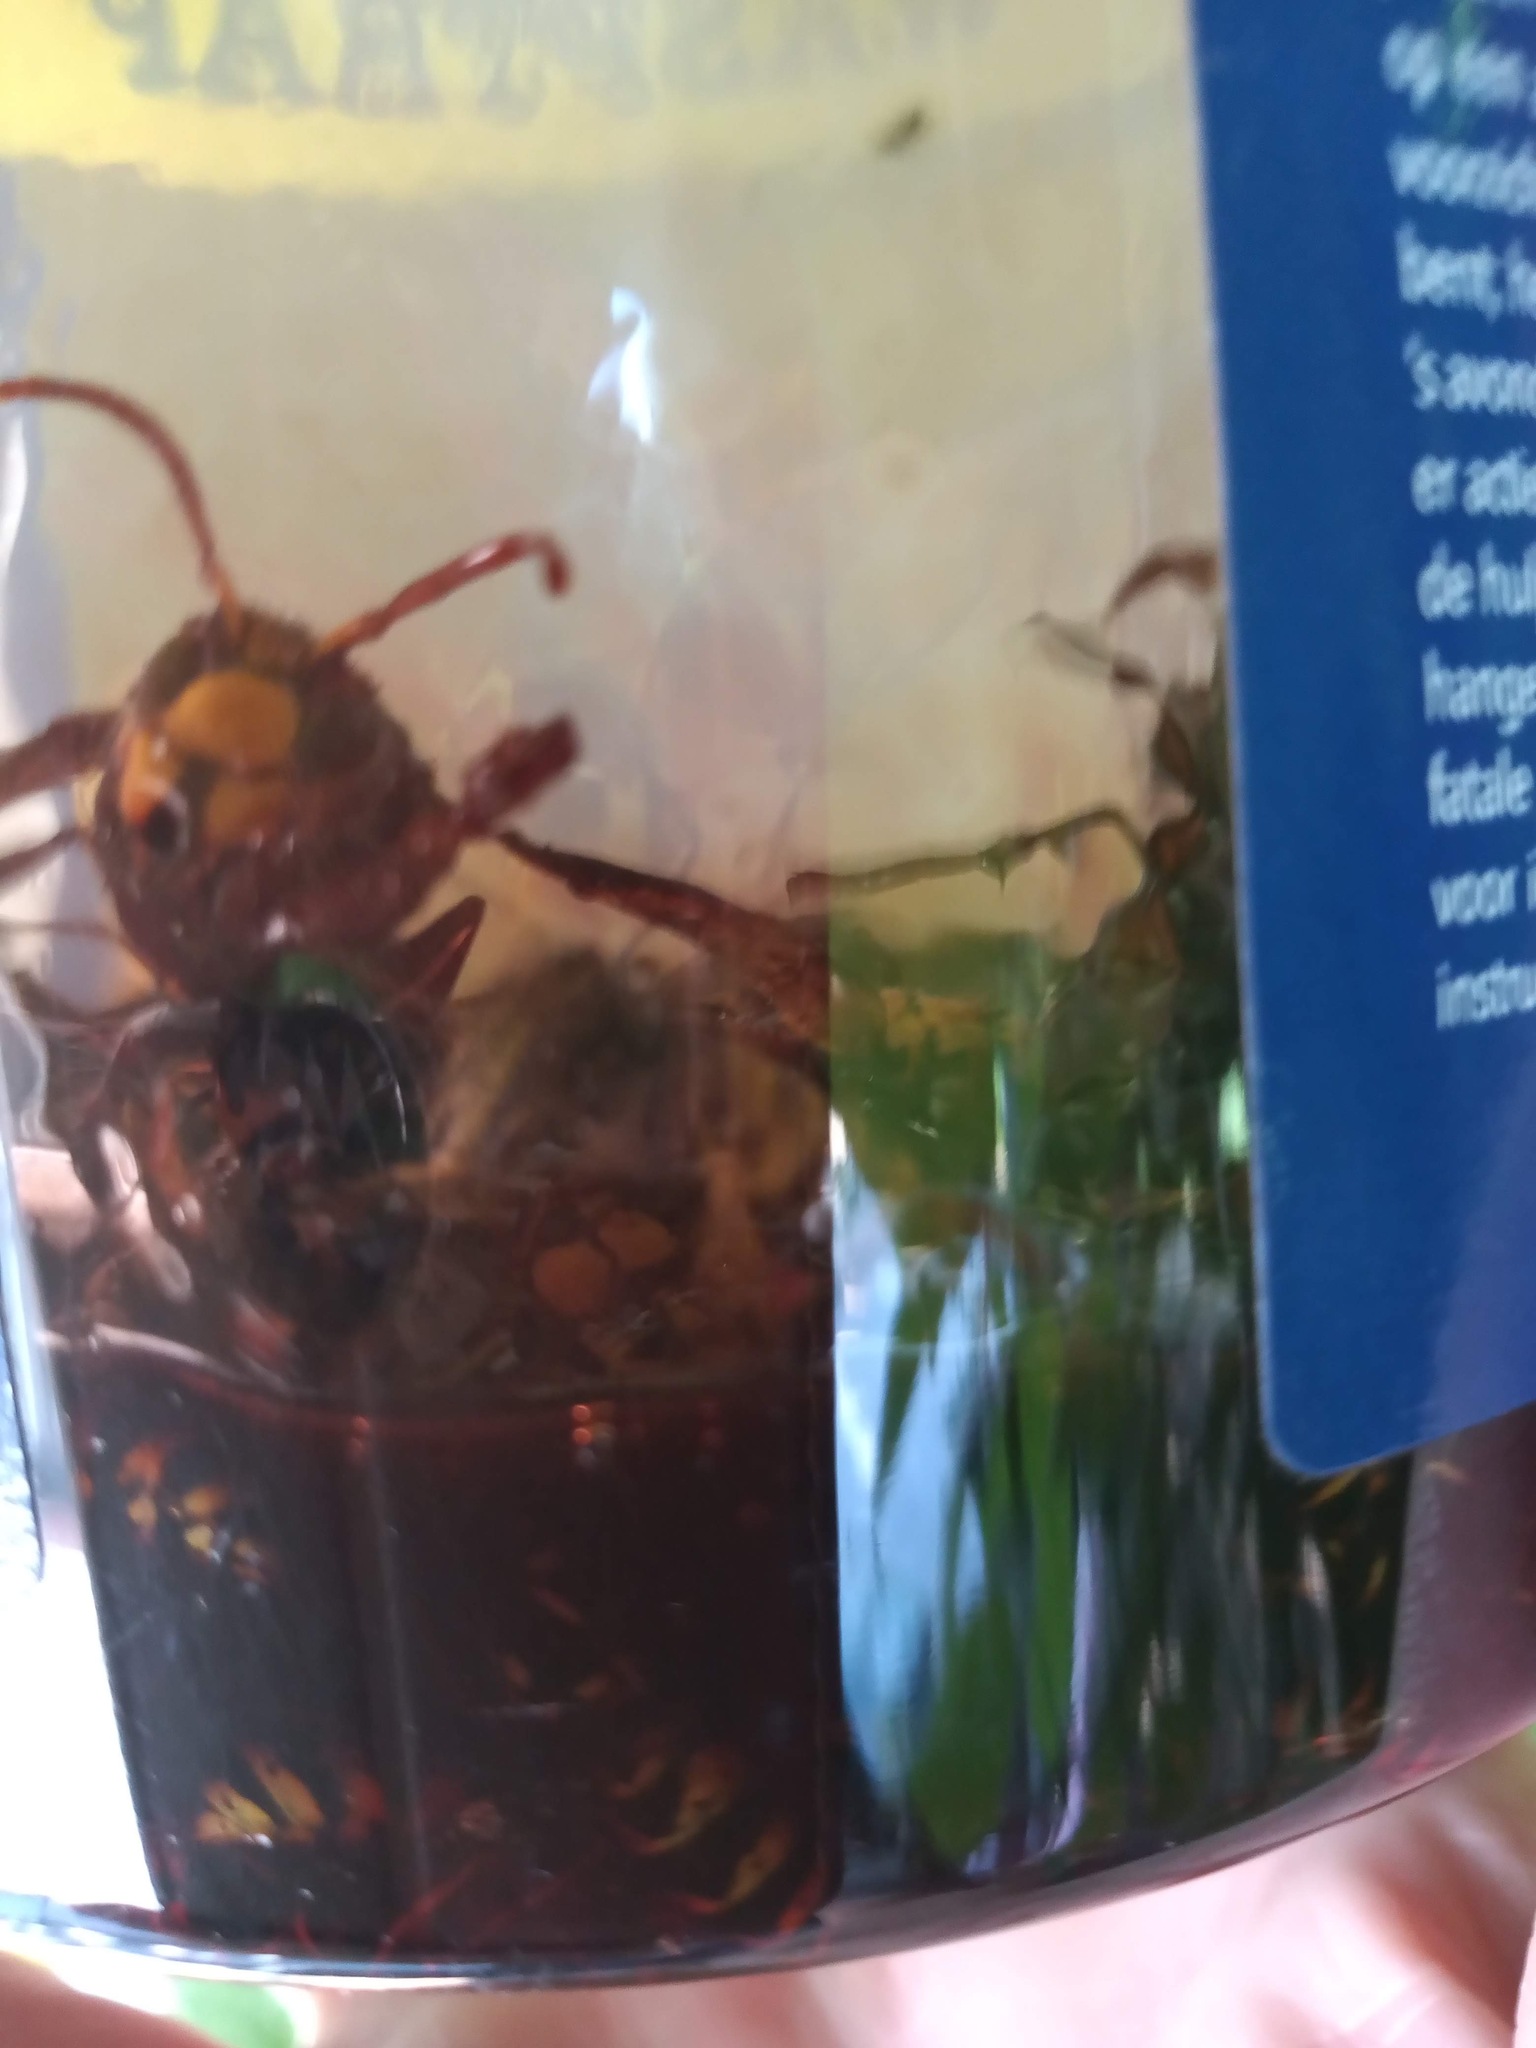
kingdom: Animalia
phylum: Arthropoda
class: Insecta
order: Hymenoptera
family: Vespidae
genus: Vespa
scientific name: Vespa crabro
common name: Hornet
